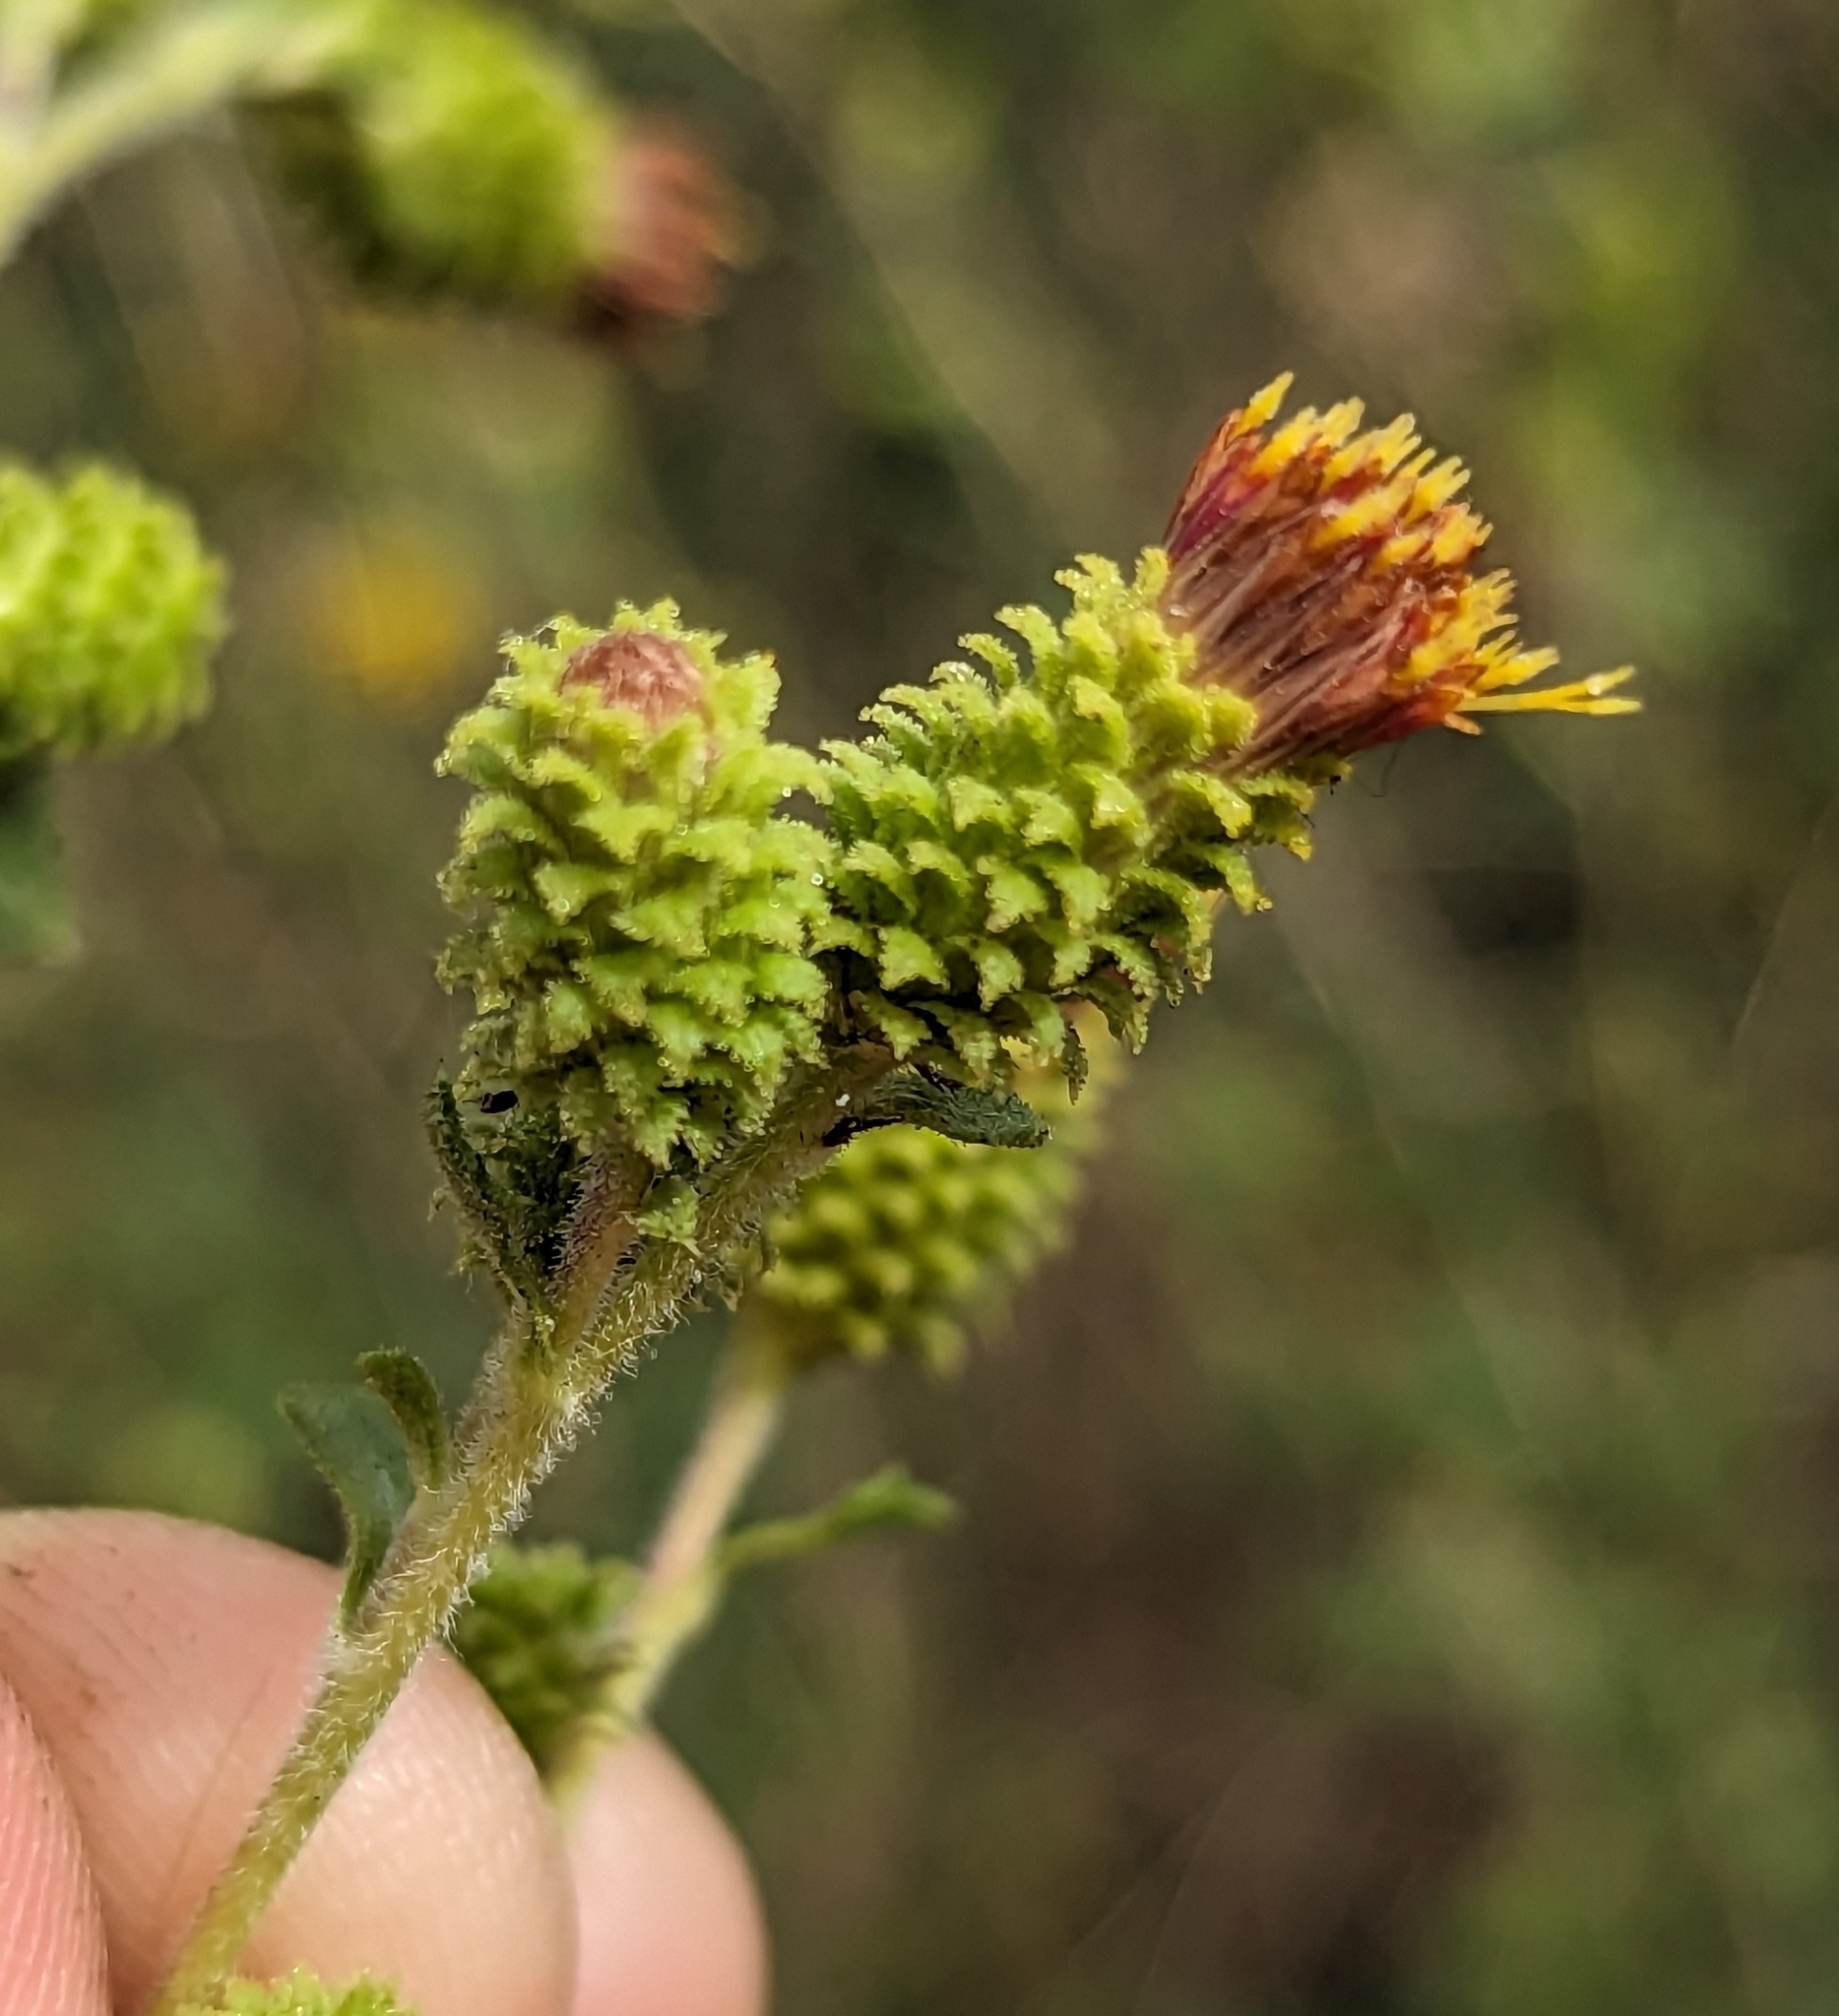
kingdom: Plantae
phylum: Tracheophyta
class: Magnoliopsida
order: Asterales
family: Asteraceae
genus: Hazardia
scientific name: Hazardia squarrosa
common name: Saw-tooth goldenbush
